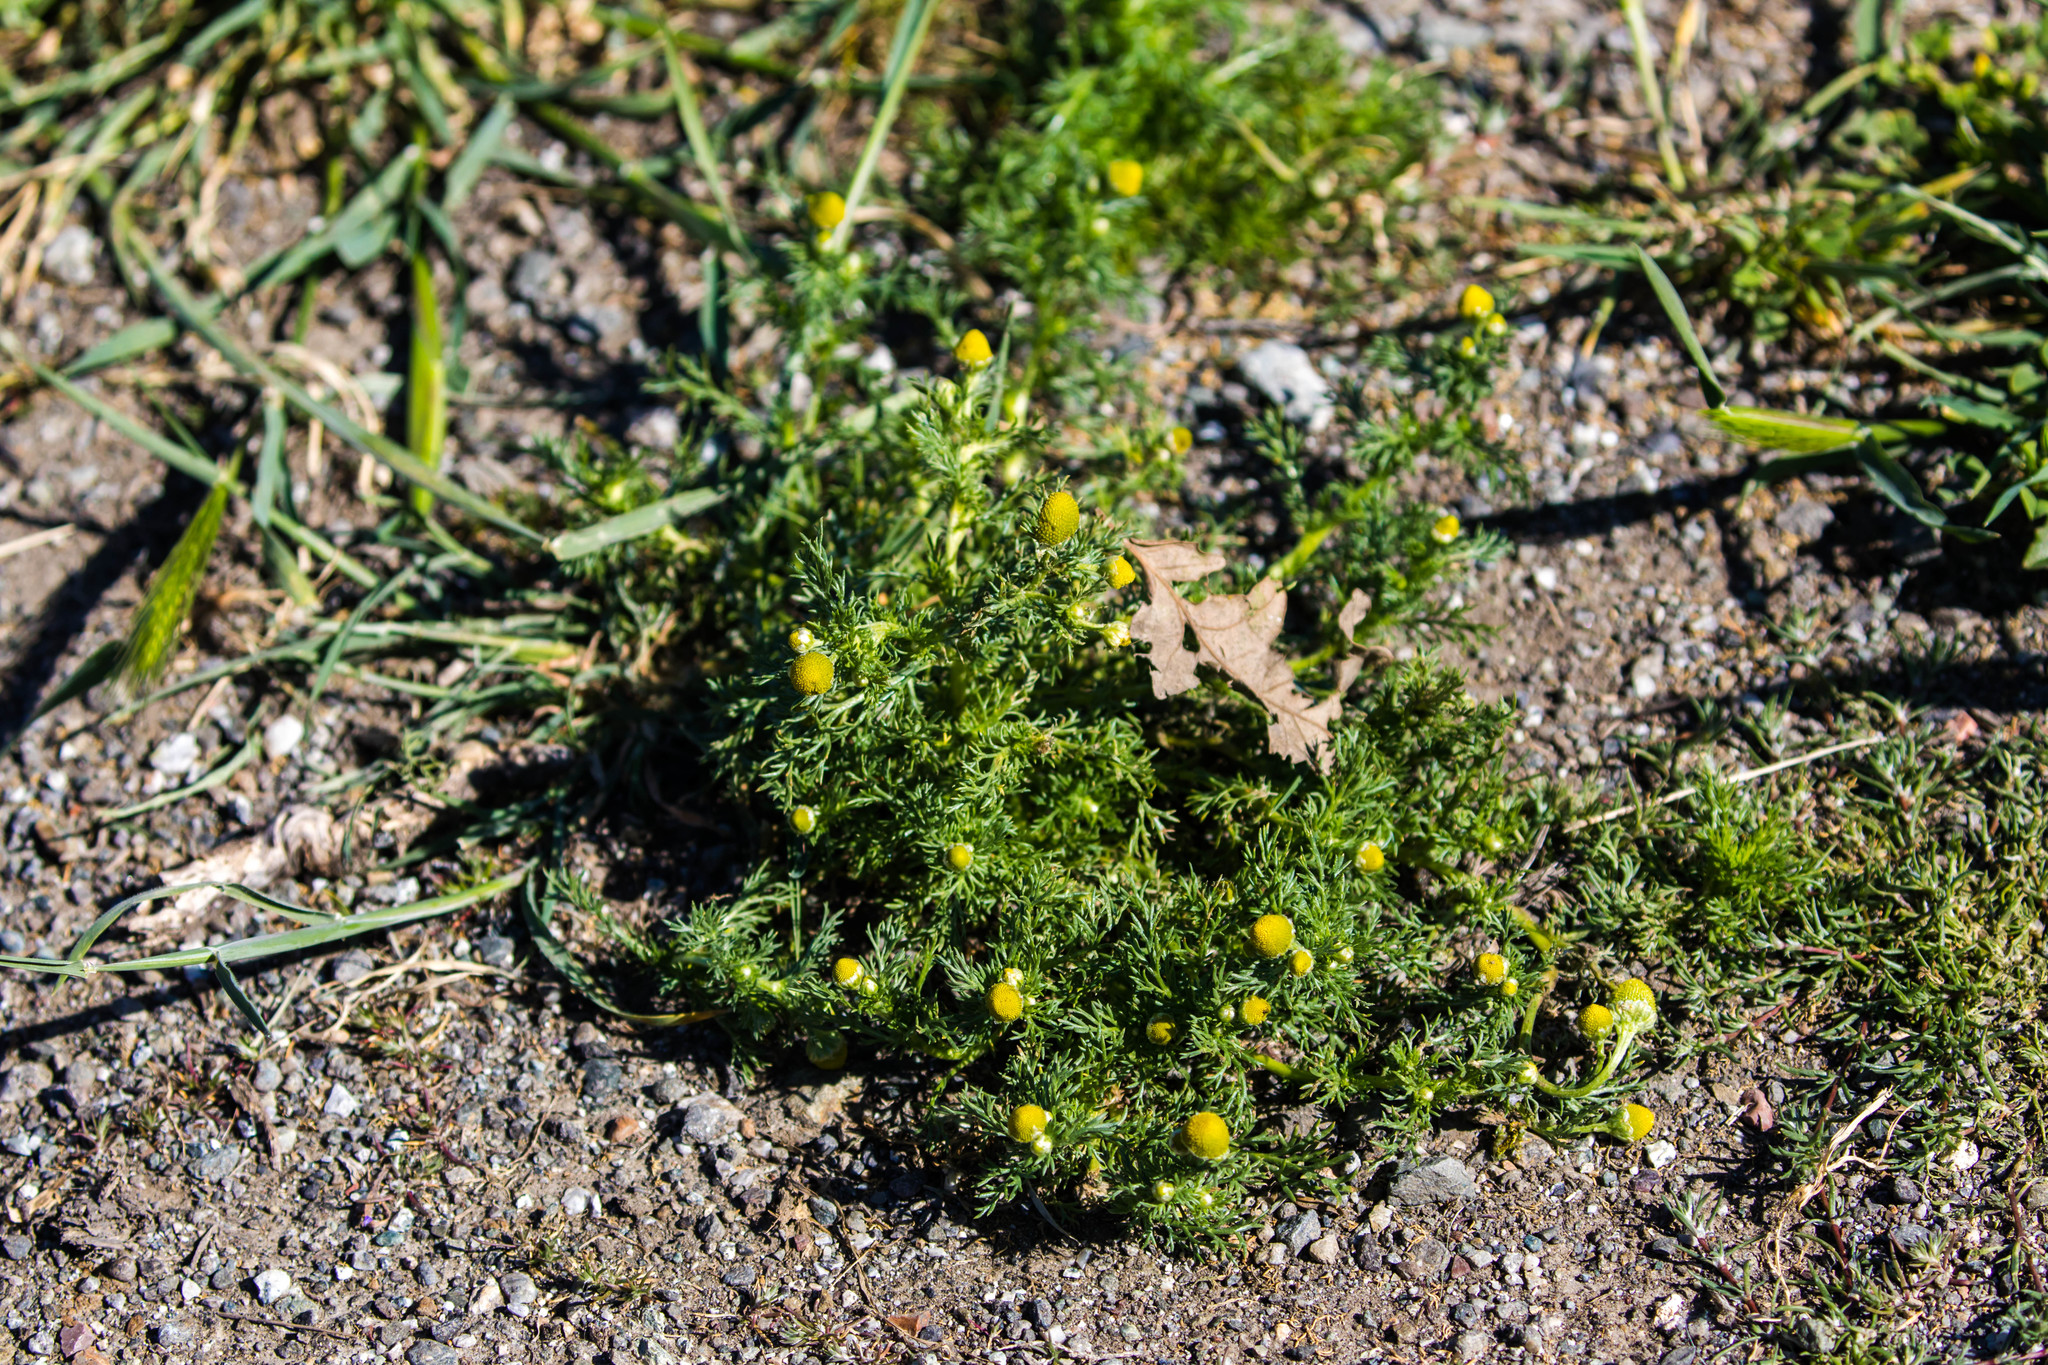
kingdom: Plantae
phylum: Tracheophyta
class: Magnoliopsida
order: Asterales
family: Asteraceae
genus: Matricaria
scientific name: Matricaria discoidea
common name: Disc mayweed
